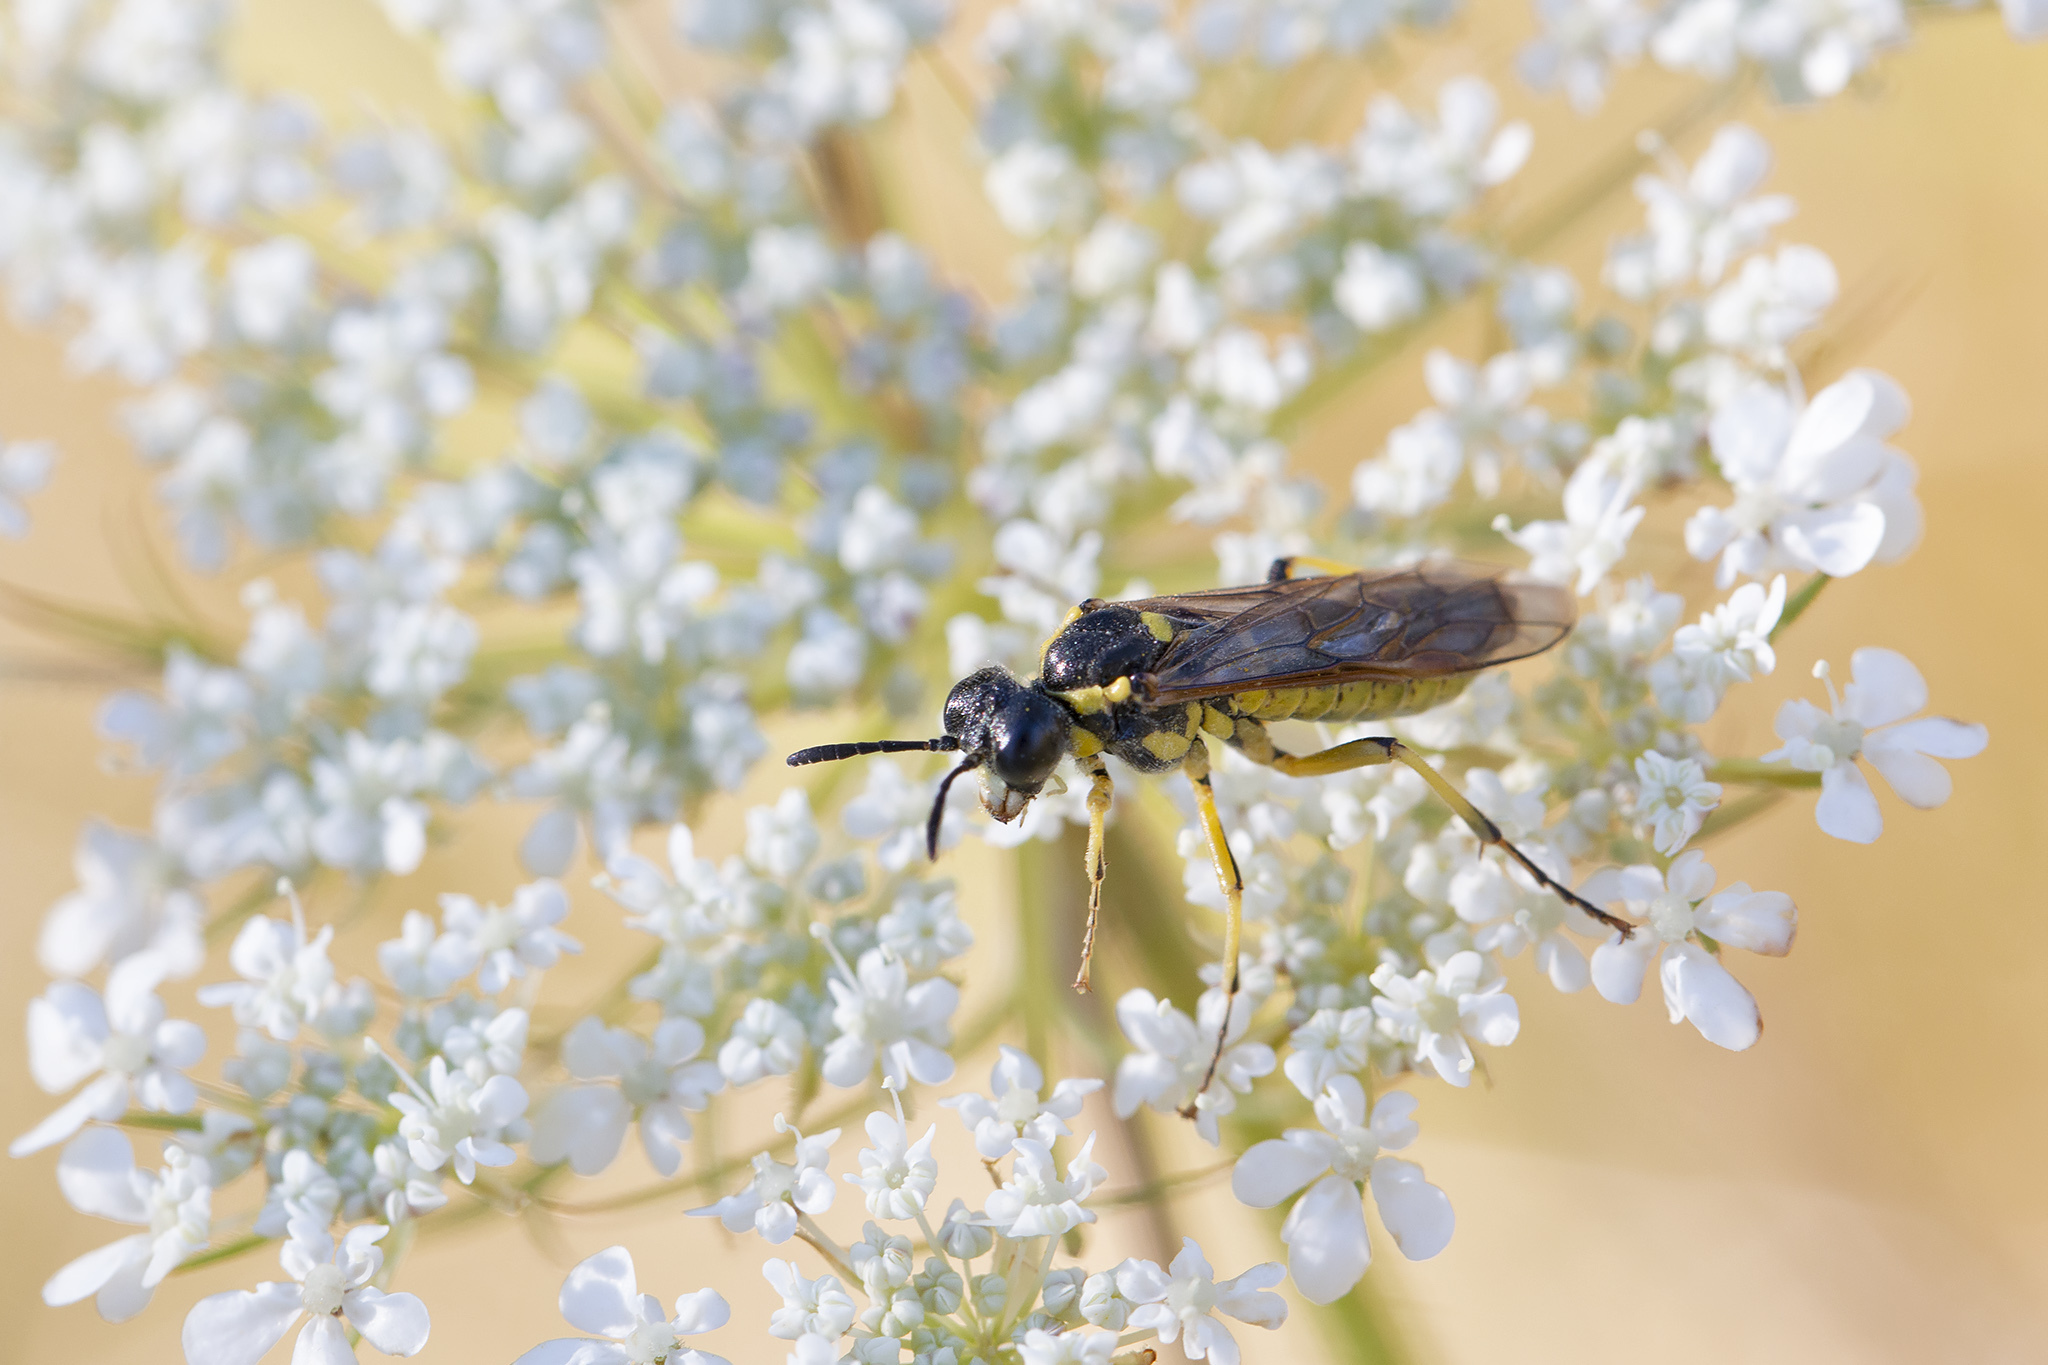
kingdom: Animalia
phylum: Arthropoda
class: Insecta
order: Hymenoptera
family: Tenthredinidae
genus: Tenthredo
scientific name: Tenthredo notha
